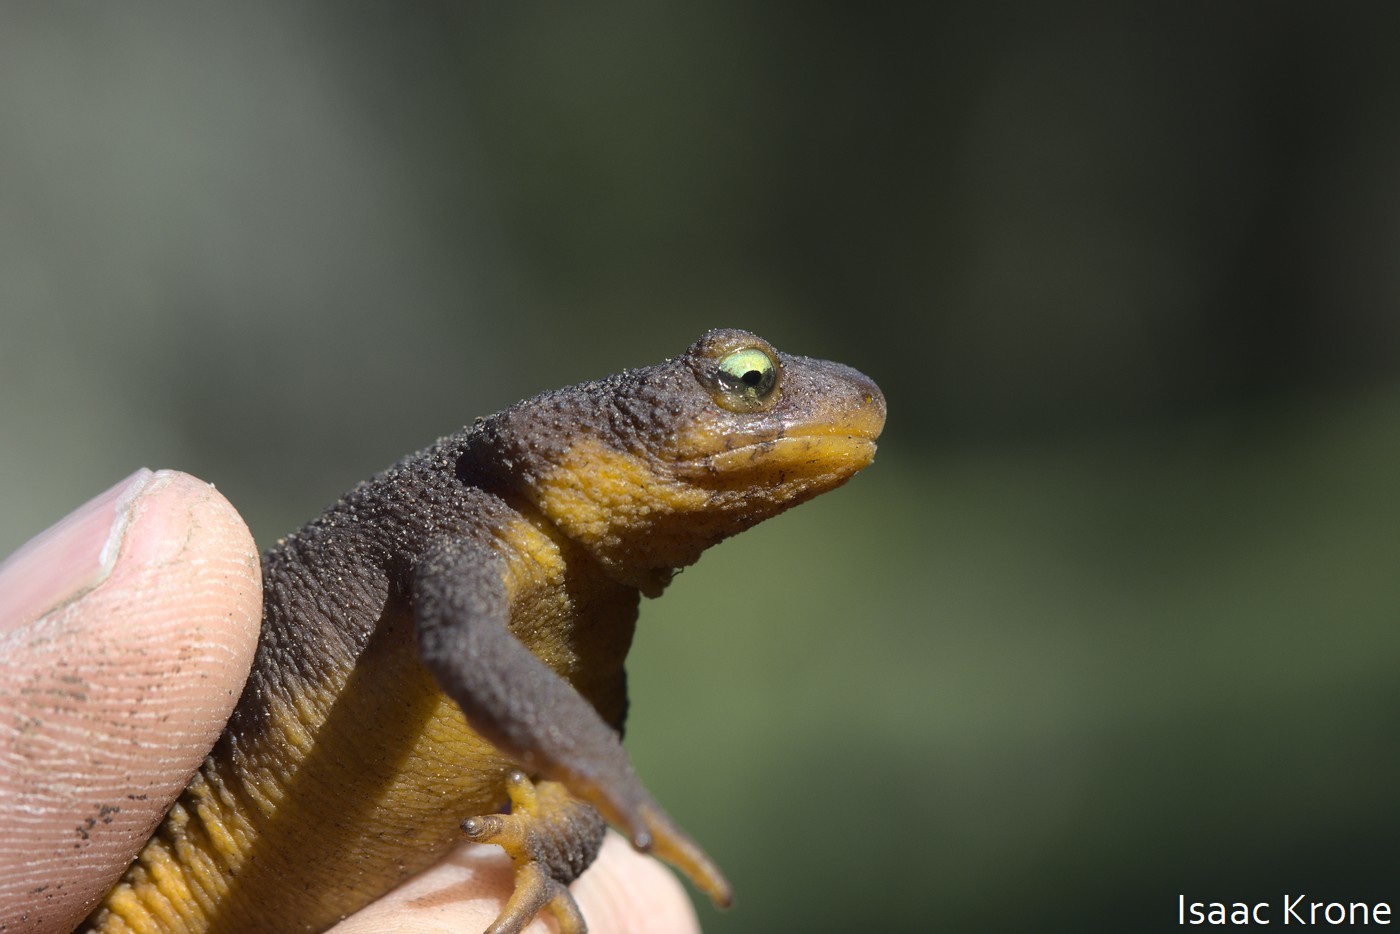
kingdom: Animalia
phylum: Chordata
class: Amphibia
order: Caudata
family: Salamandridae
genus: Taricha
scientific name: Taricha torosa
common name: California newt
